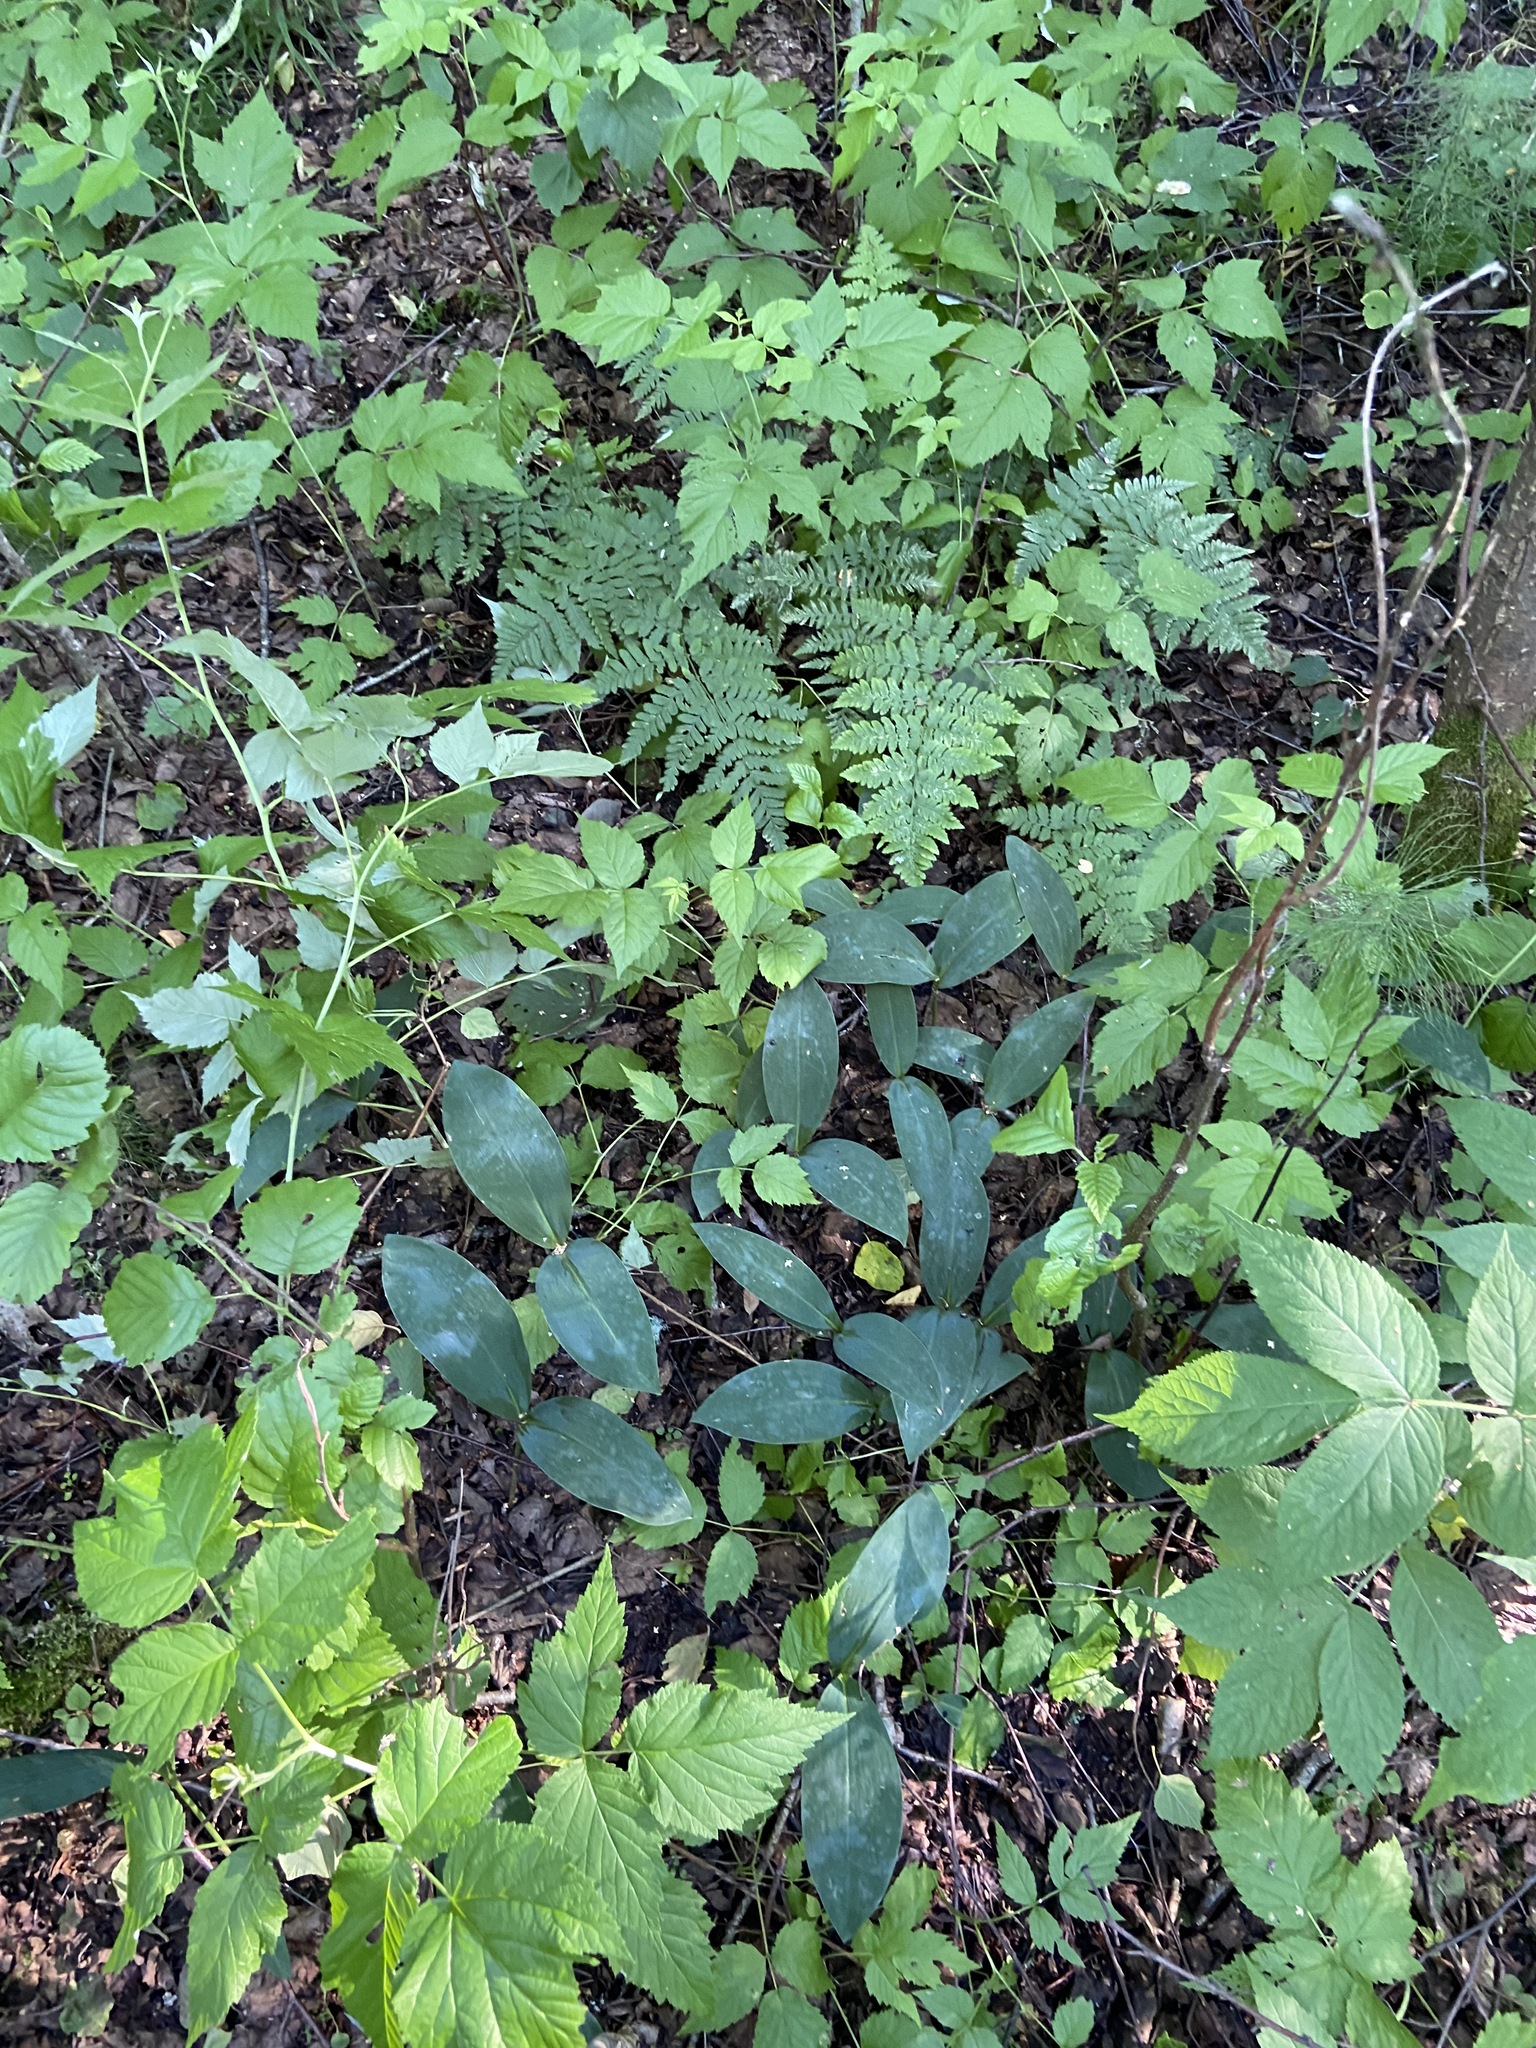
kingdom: Plantae
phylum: Tracheophyta
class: Liliopsida
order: Asparagales
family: Asparagaceae
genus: Convallaria
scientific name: Convallaria majalis
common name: Lily-of-the-valley
